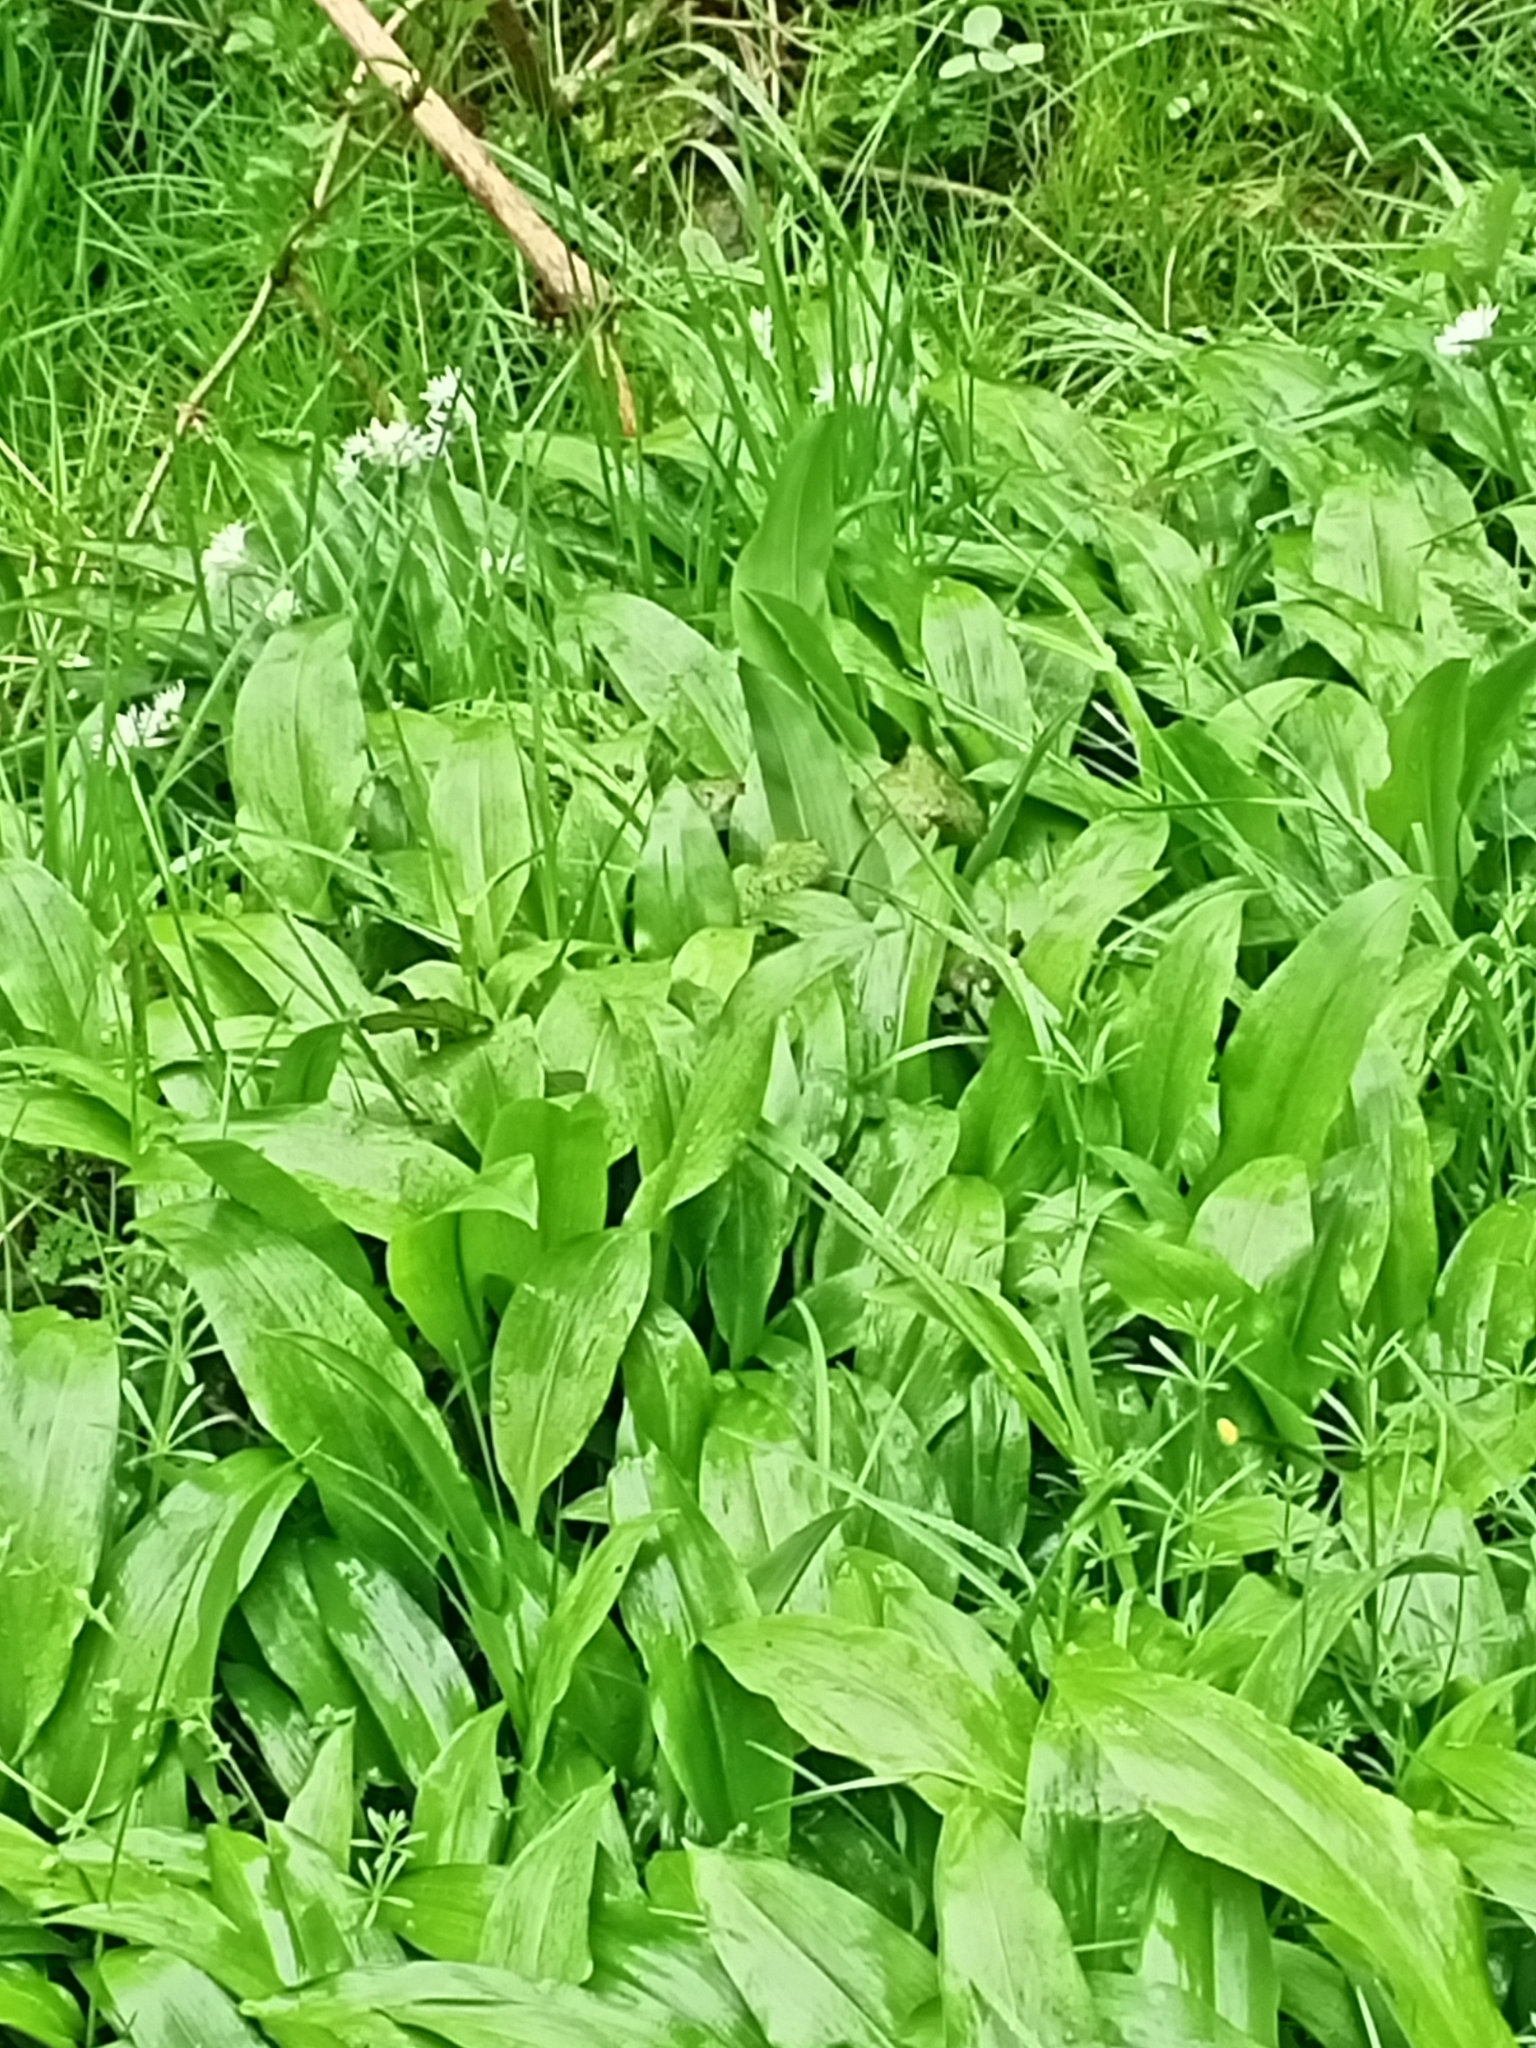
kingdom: Plantae
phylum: Tracheophyta
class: Liliopsida
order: Asparagales
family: Amaryllidaceae
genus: Allium
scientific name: Allium ursinum
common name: Ramsons
